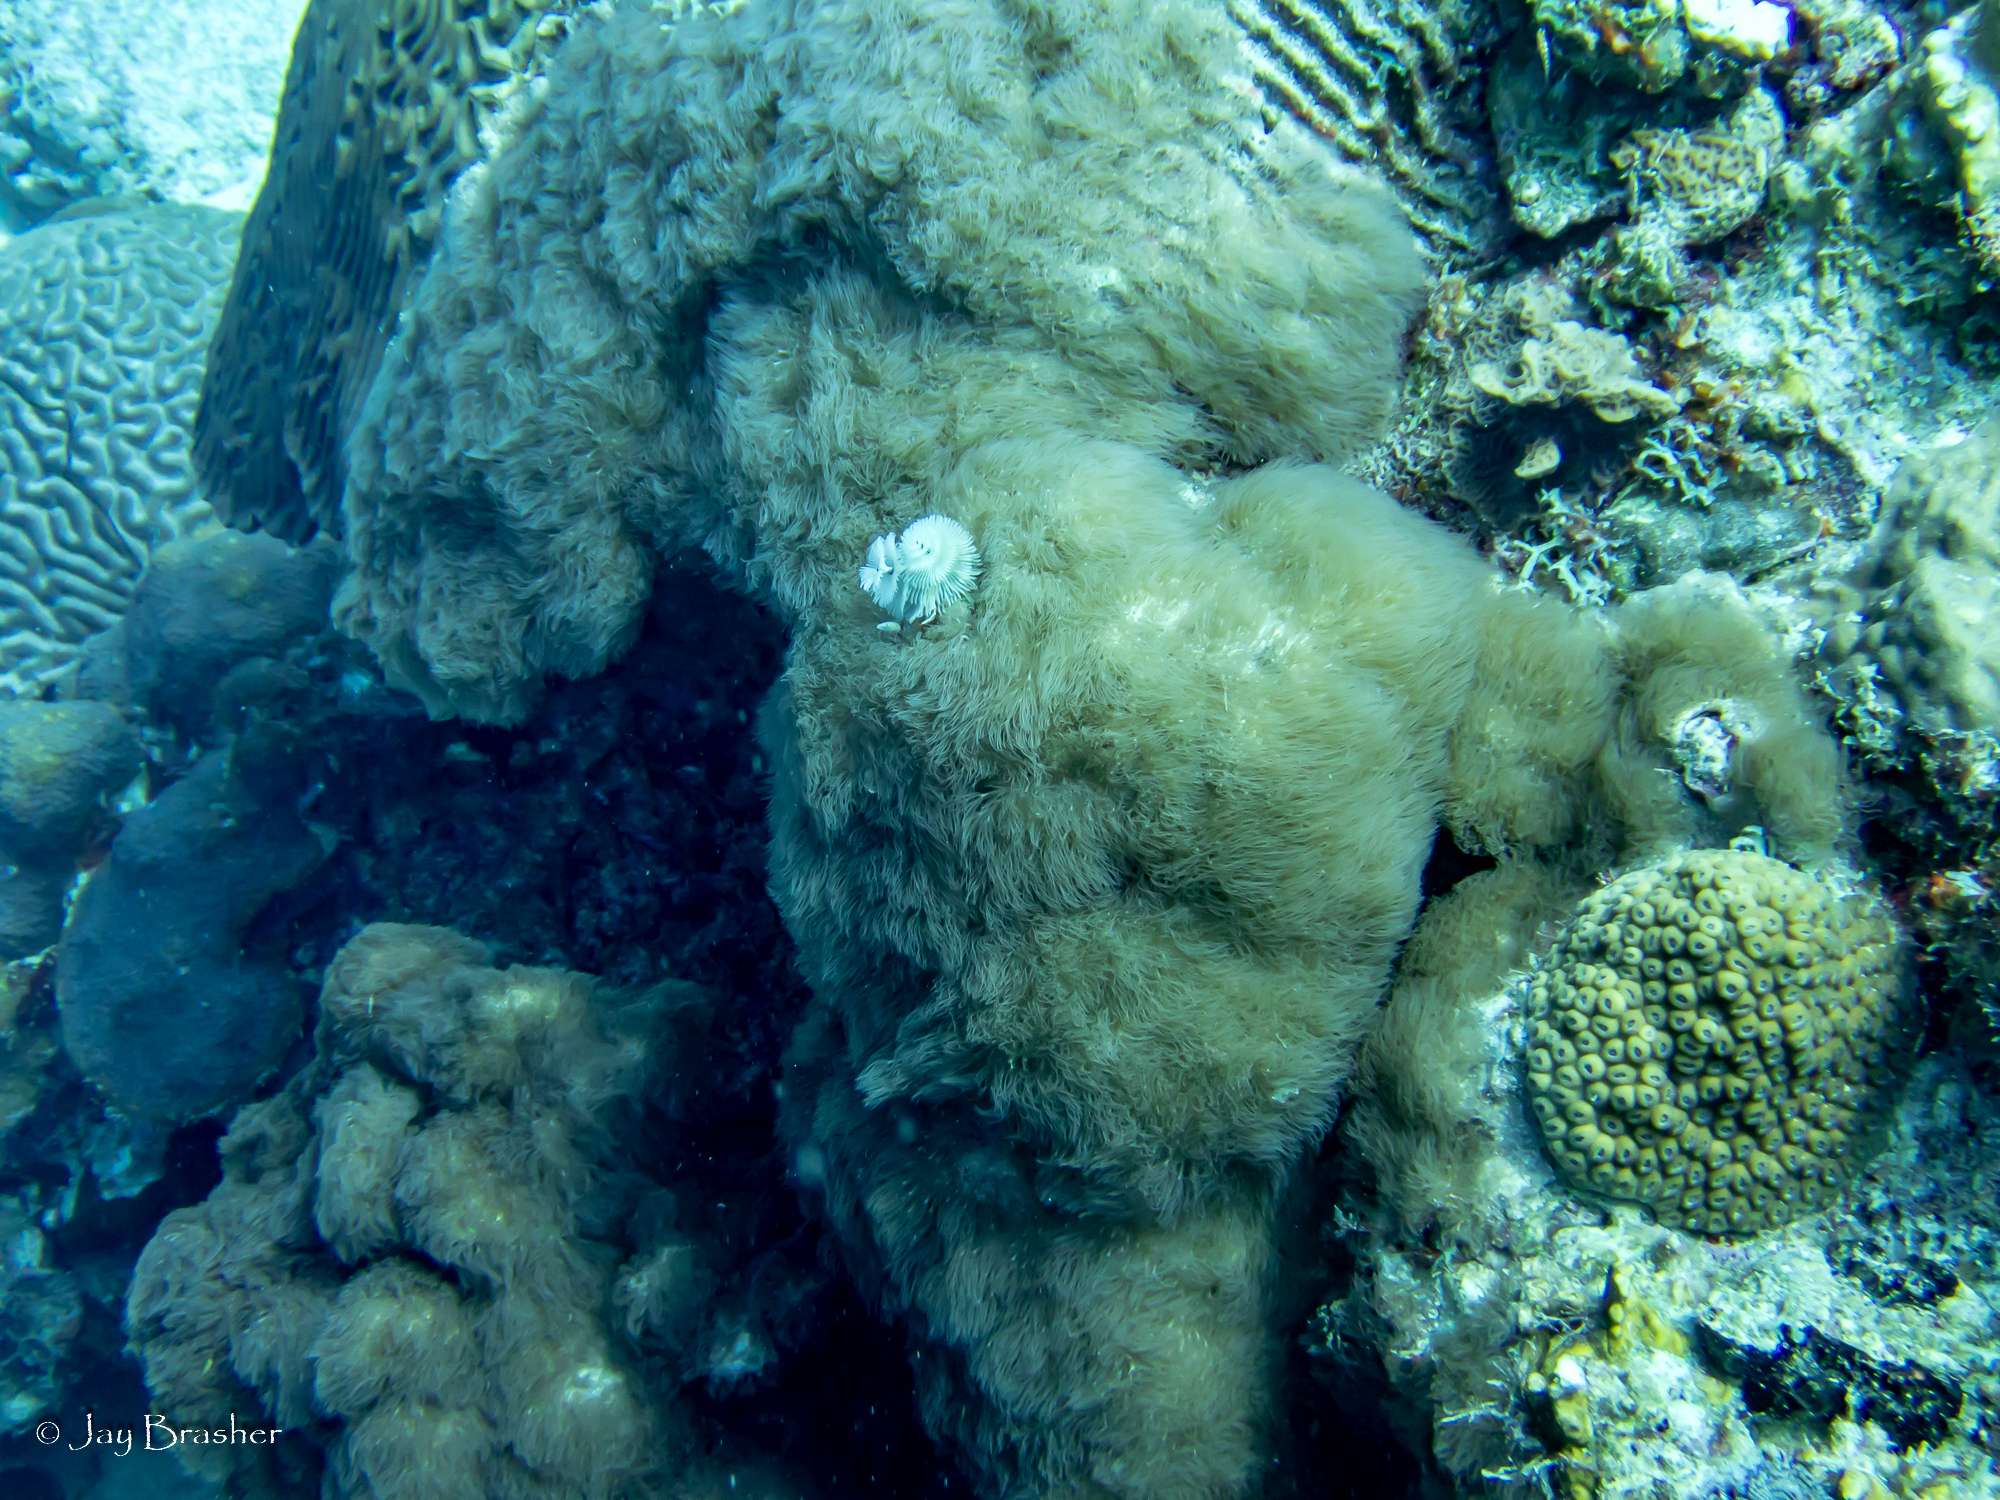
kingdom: Animalia
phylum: Cnidaria
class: Anthozoa
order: Scleralcyonacea
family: Erythropodiidae
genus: Erythropodium
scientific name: Erythropodium caribaeorum
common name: Encrusting gorgonian
